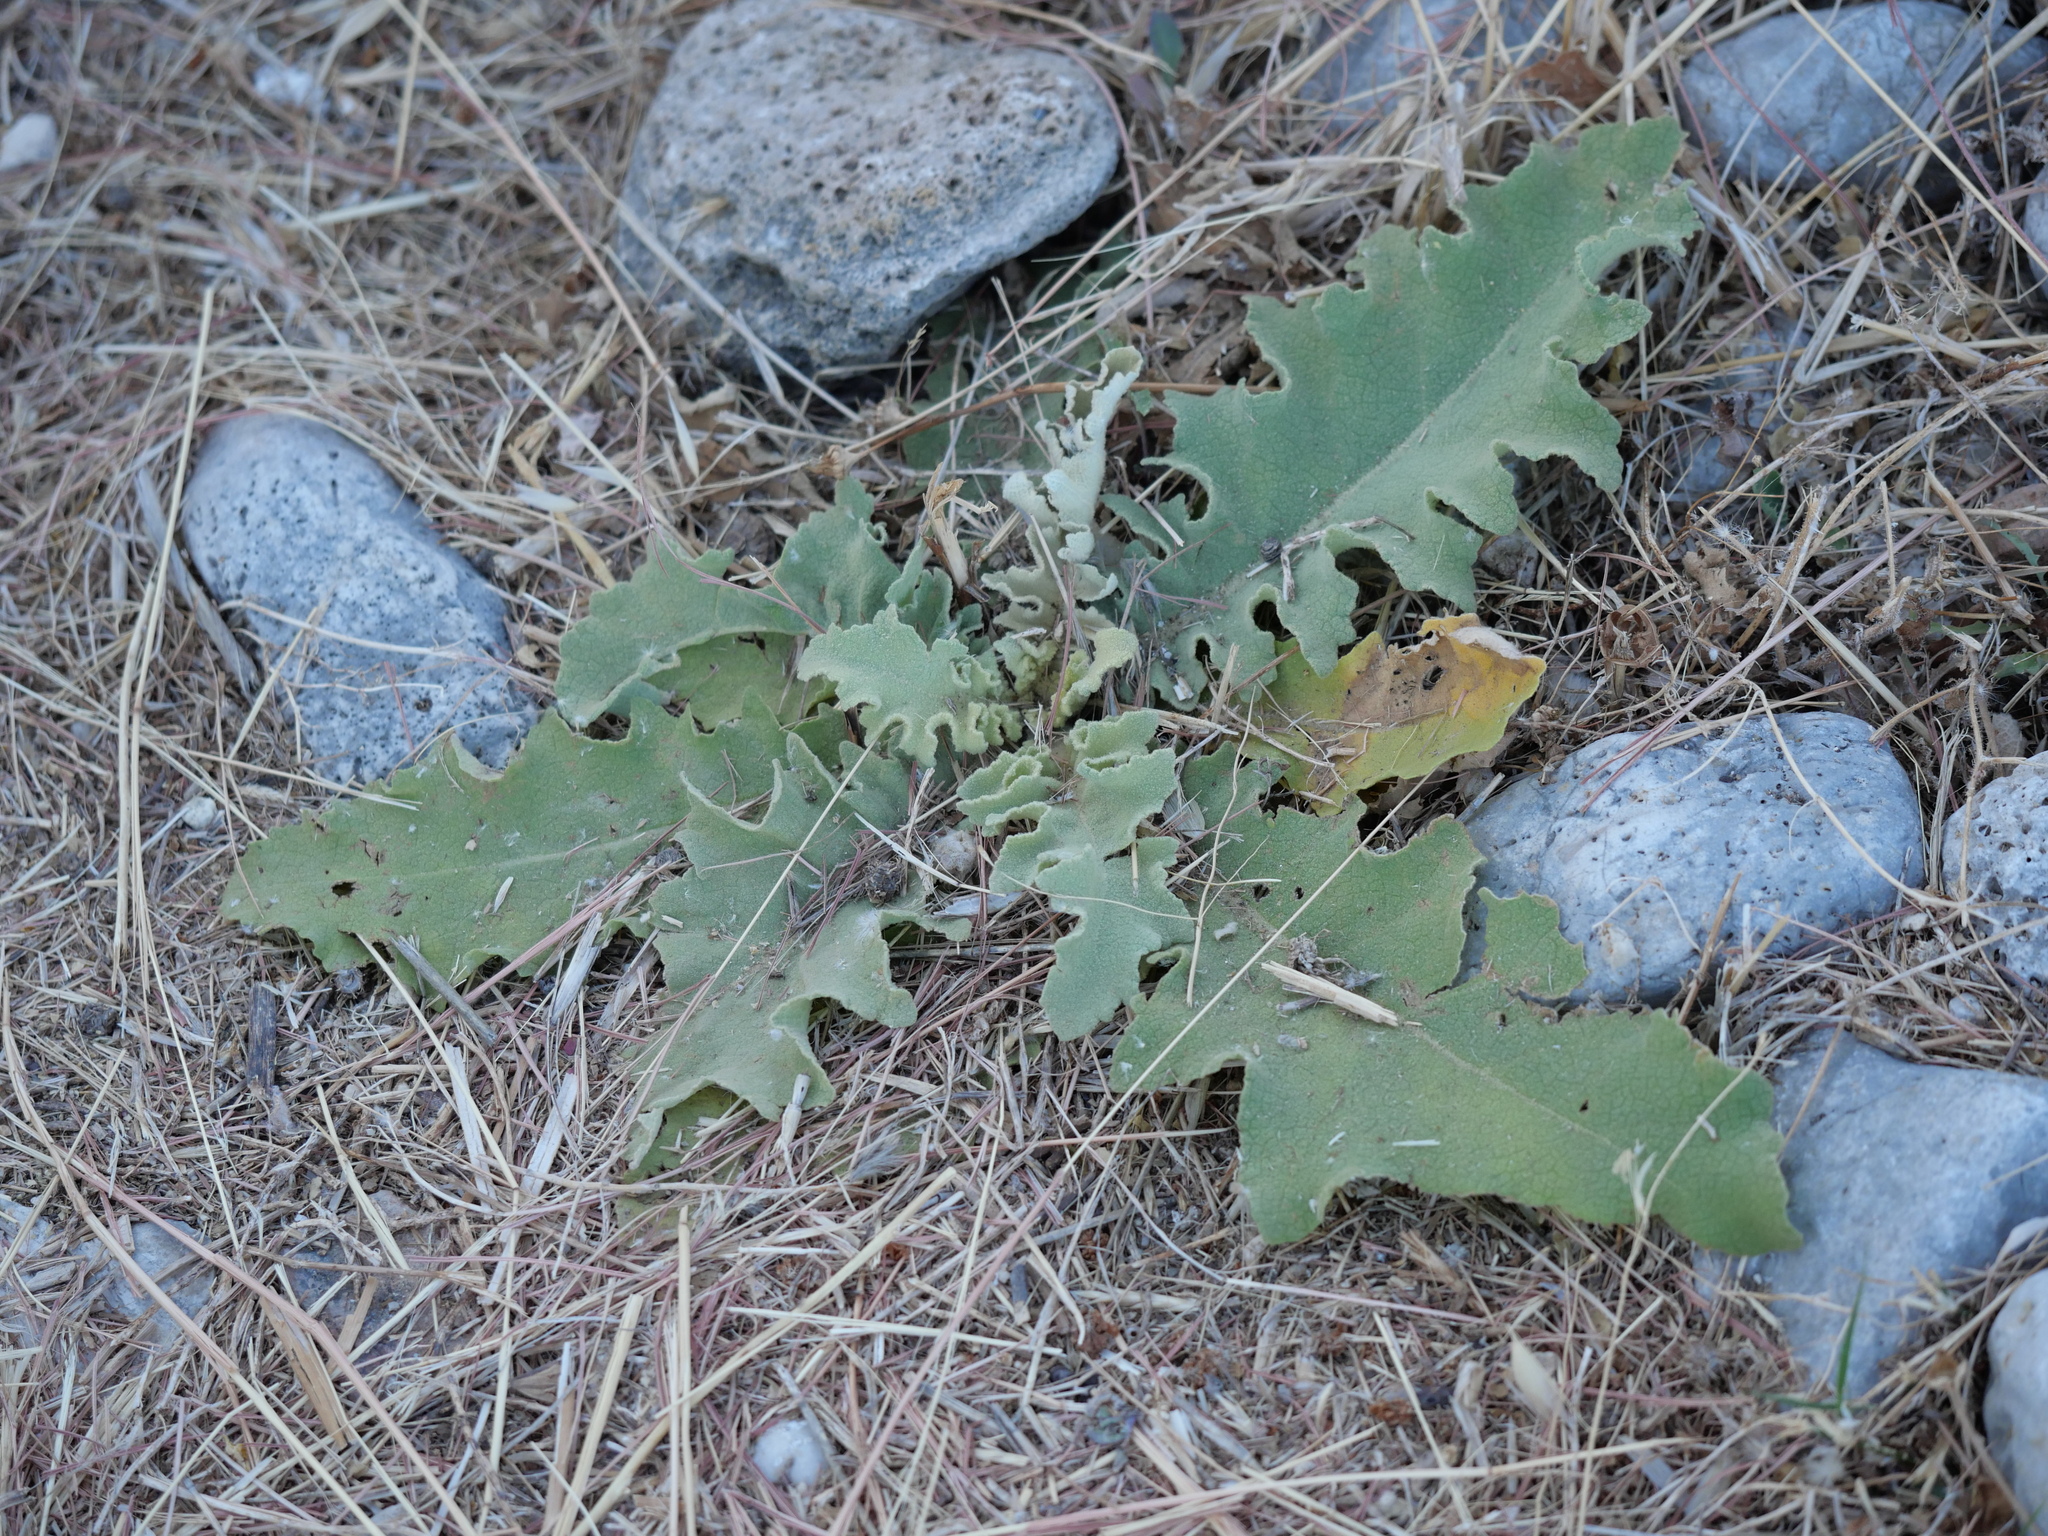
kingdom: Plantae
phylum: Tracheophyta
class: Magnoliopsida
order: Lamiales
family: Scrophulariaceae
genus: Verbascum
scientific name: Verbascum sinuatum
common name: Wavyleaf mullein
